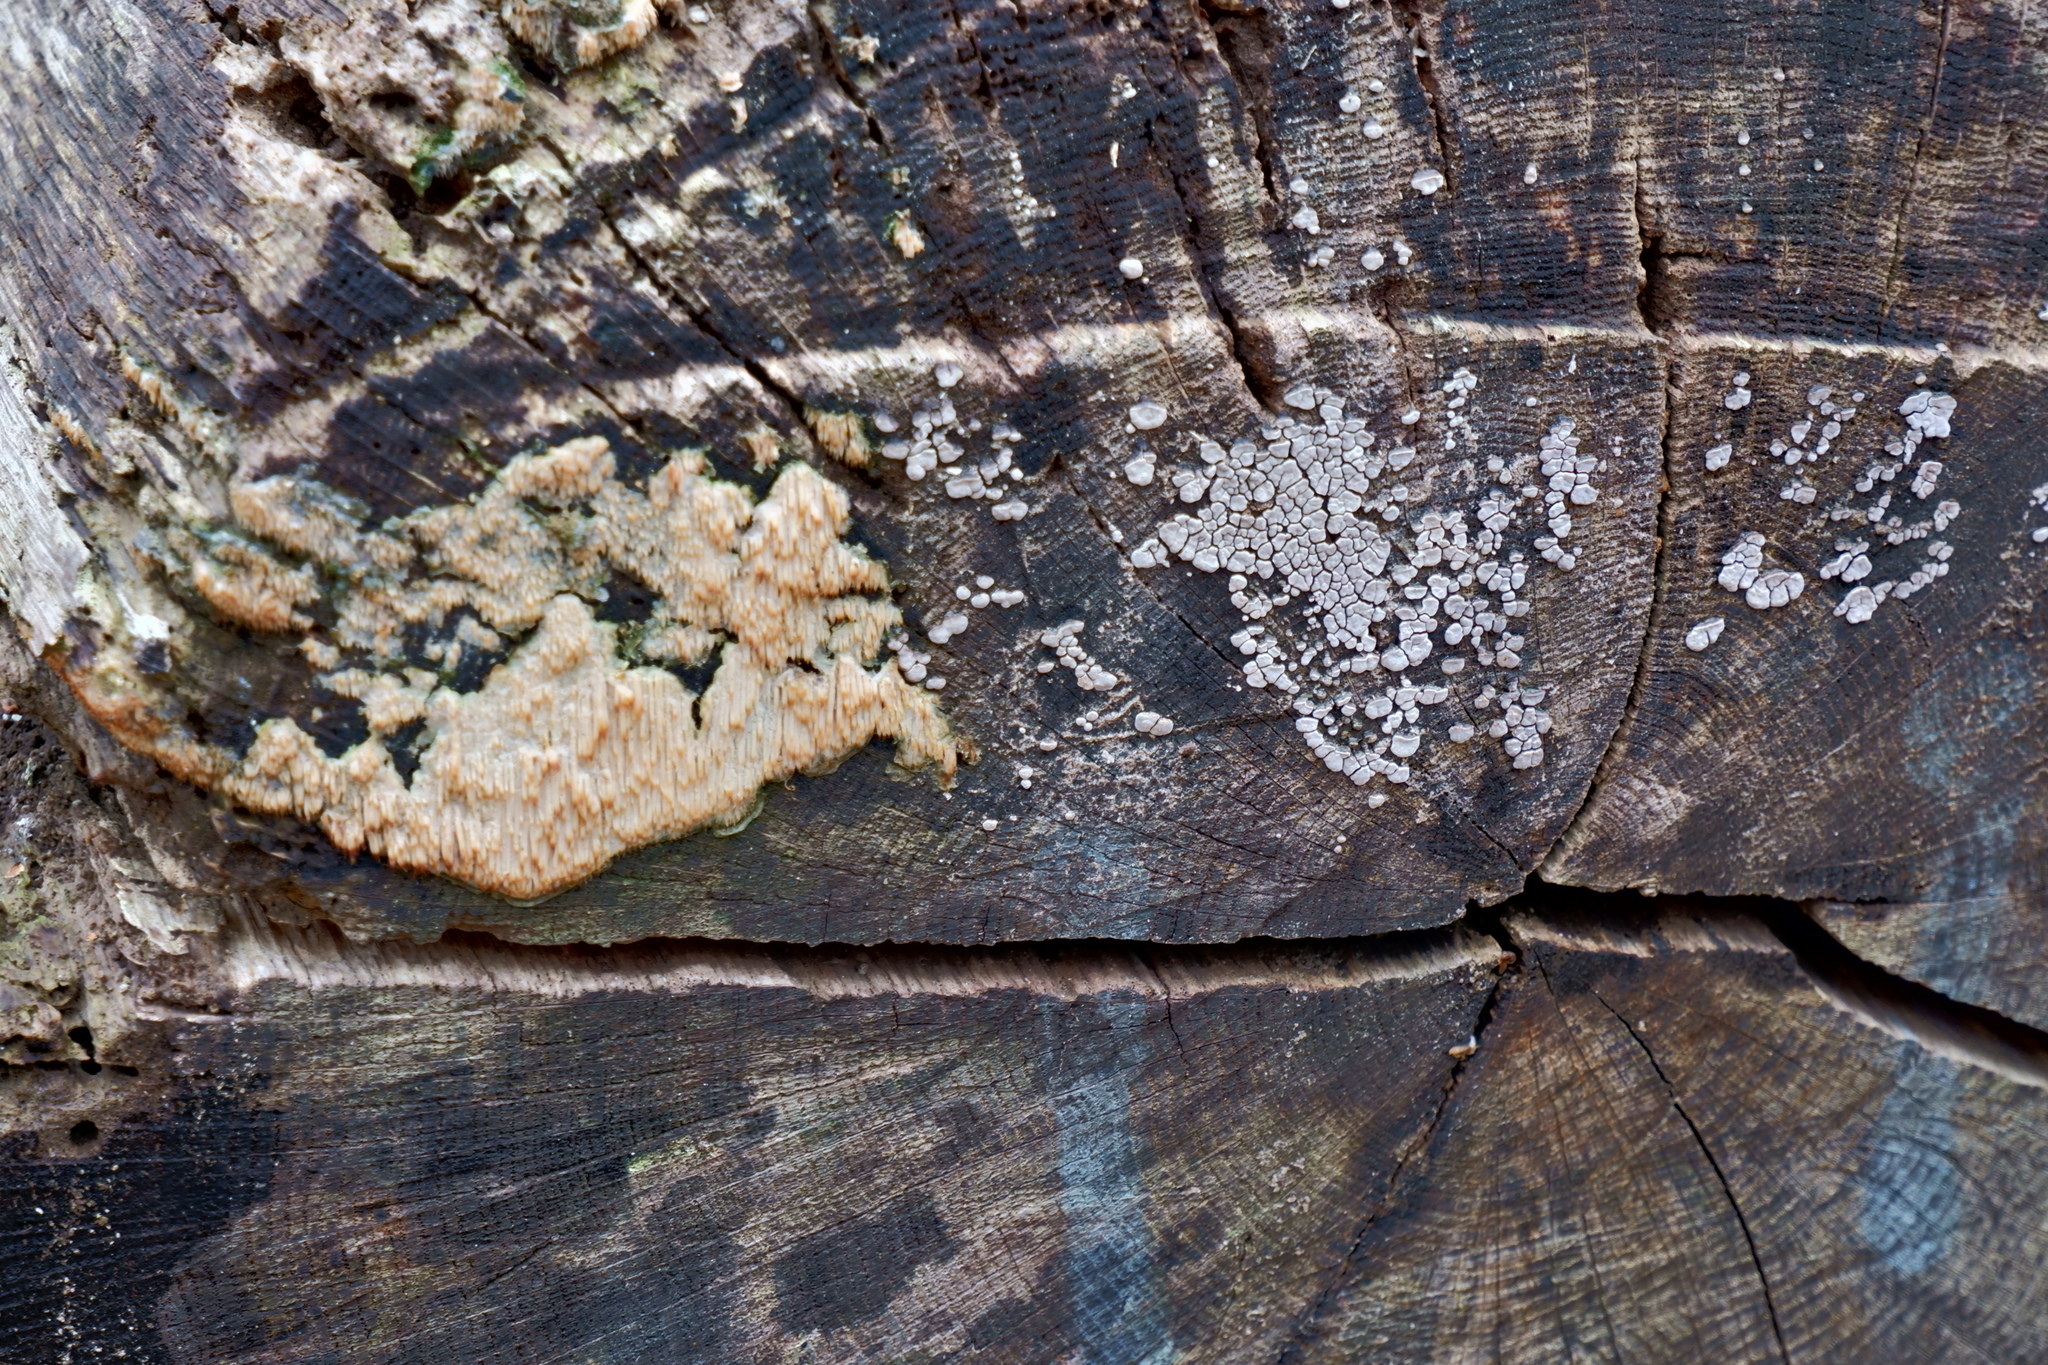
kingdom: Fungi
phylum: Basidiomycota
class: Agaricomycetes
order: Russulales
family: Stereaceae
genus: Xylobolus
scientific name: Xylobolus frustulatus
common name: Ceramic parchment
